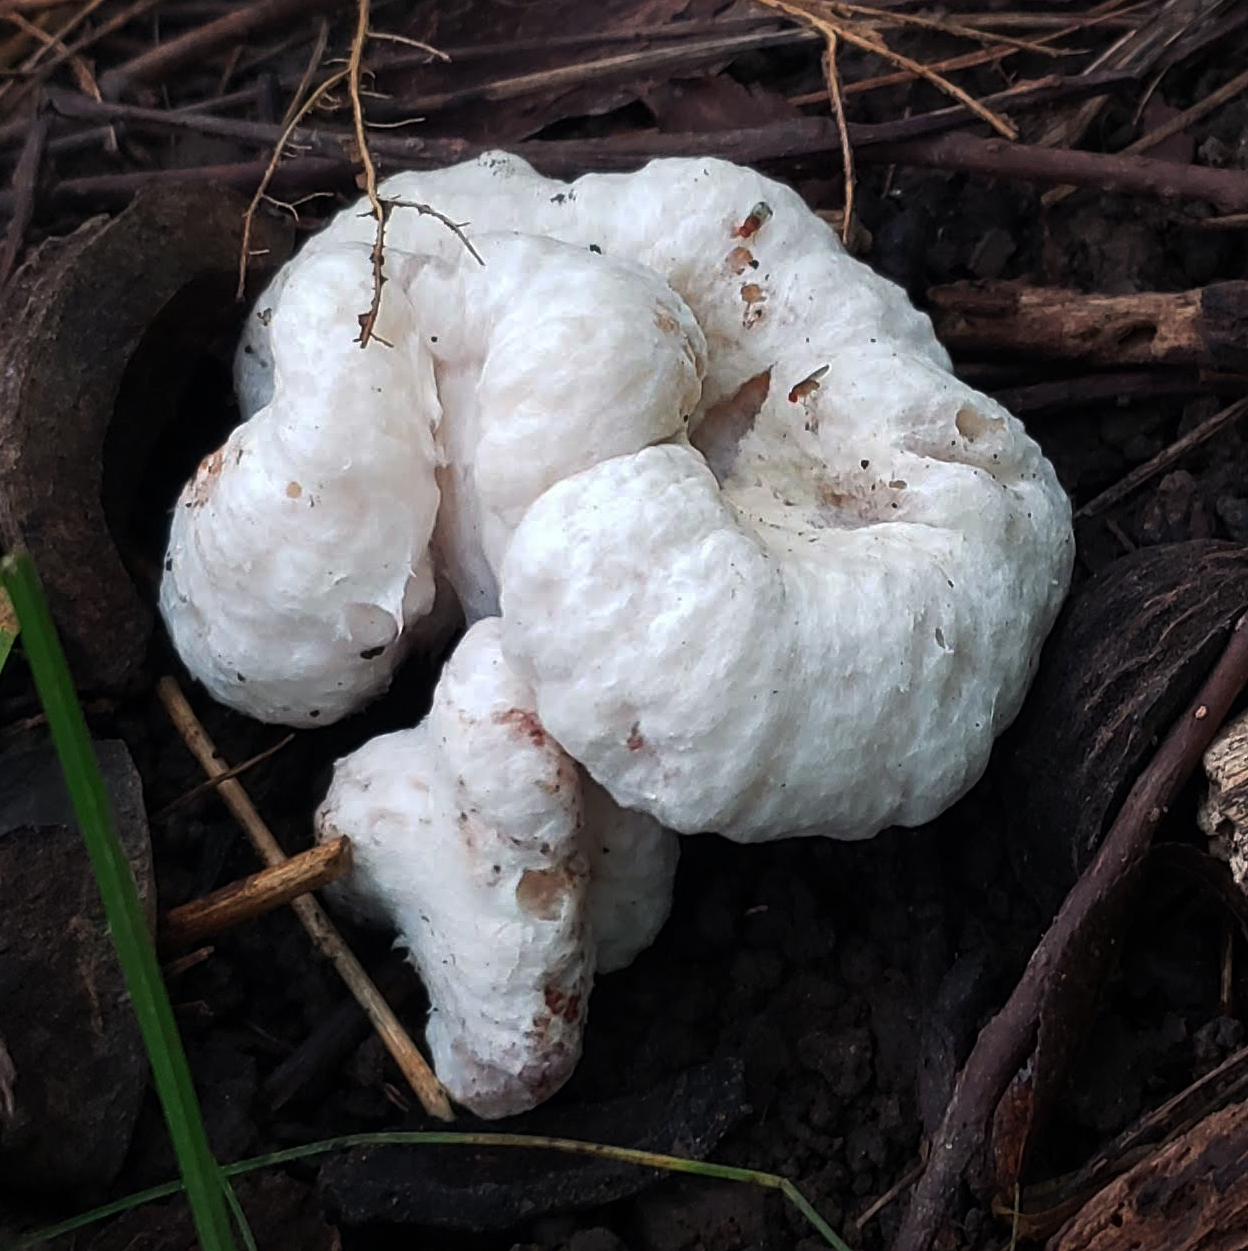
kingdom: Fungi
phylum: Basidiomycota
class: Agaricomycetes
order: Agaricales
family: Entolomataceae
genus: Entoloma
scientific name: Entoloma abortivum
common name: Aborted entoloma
